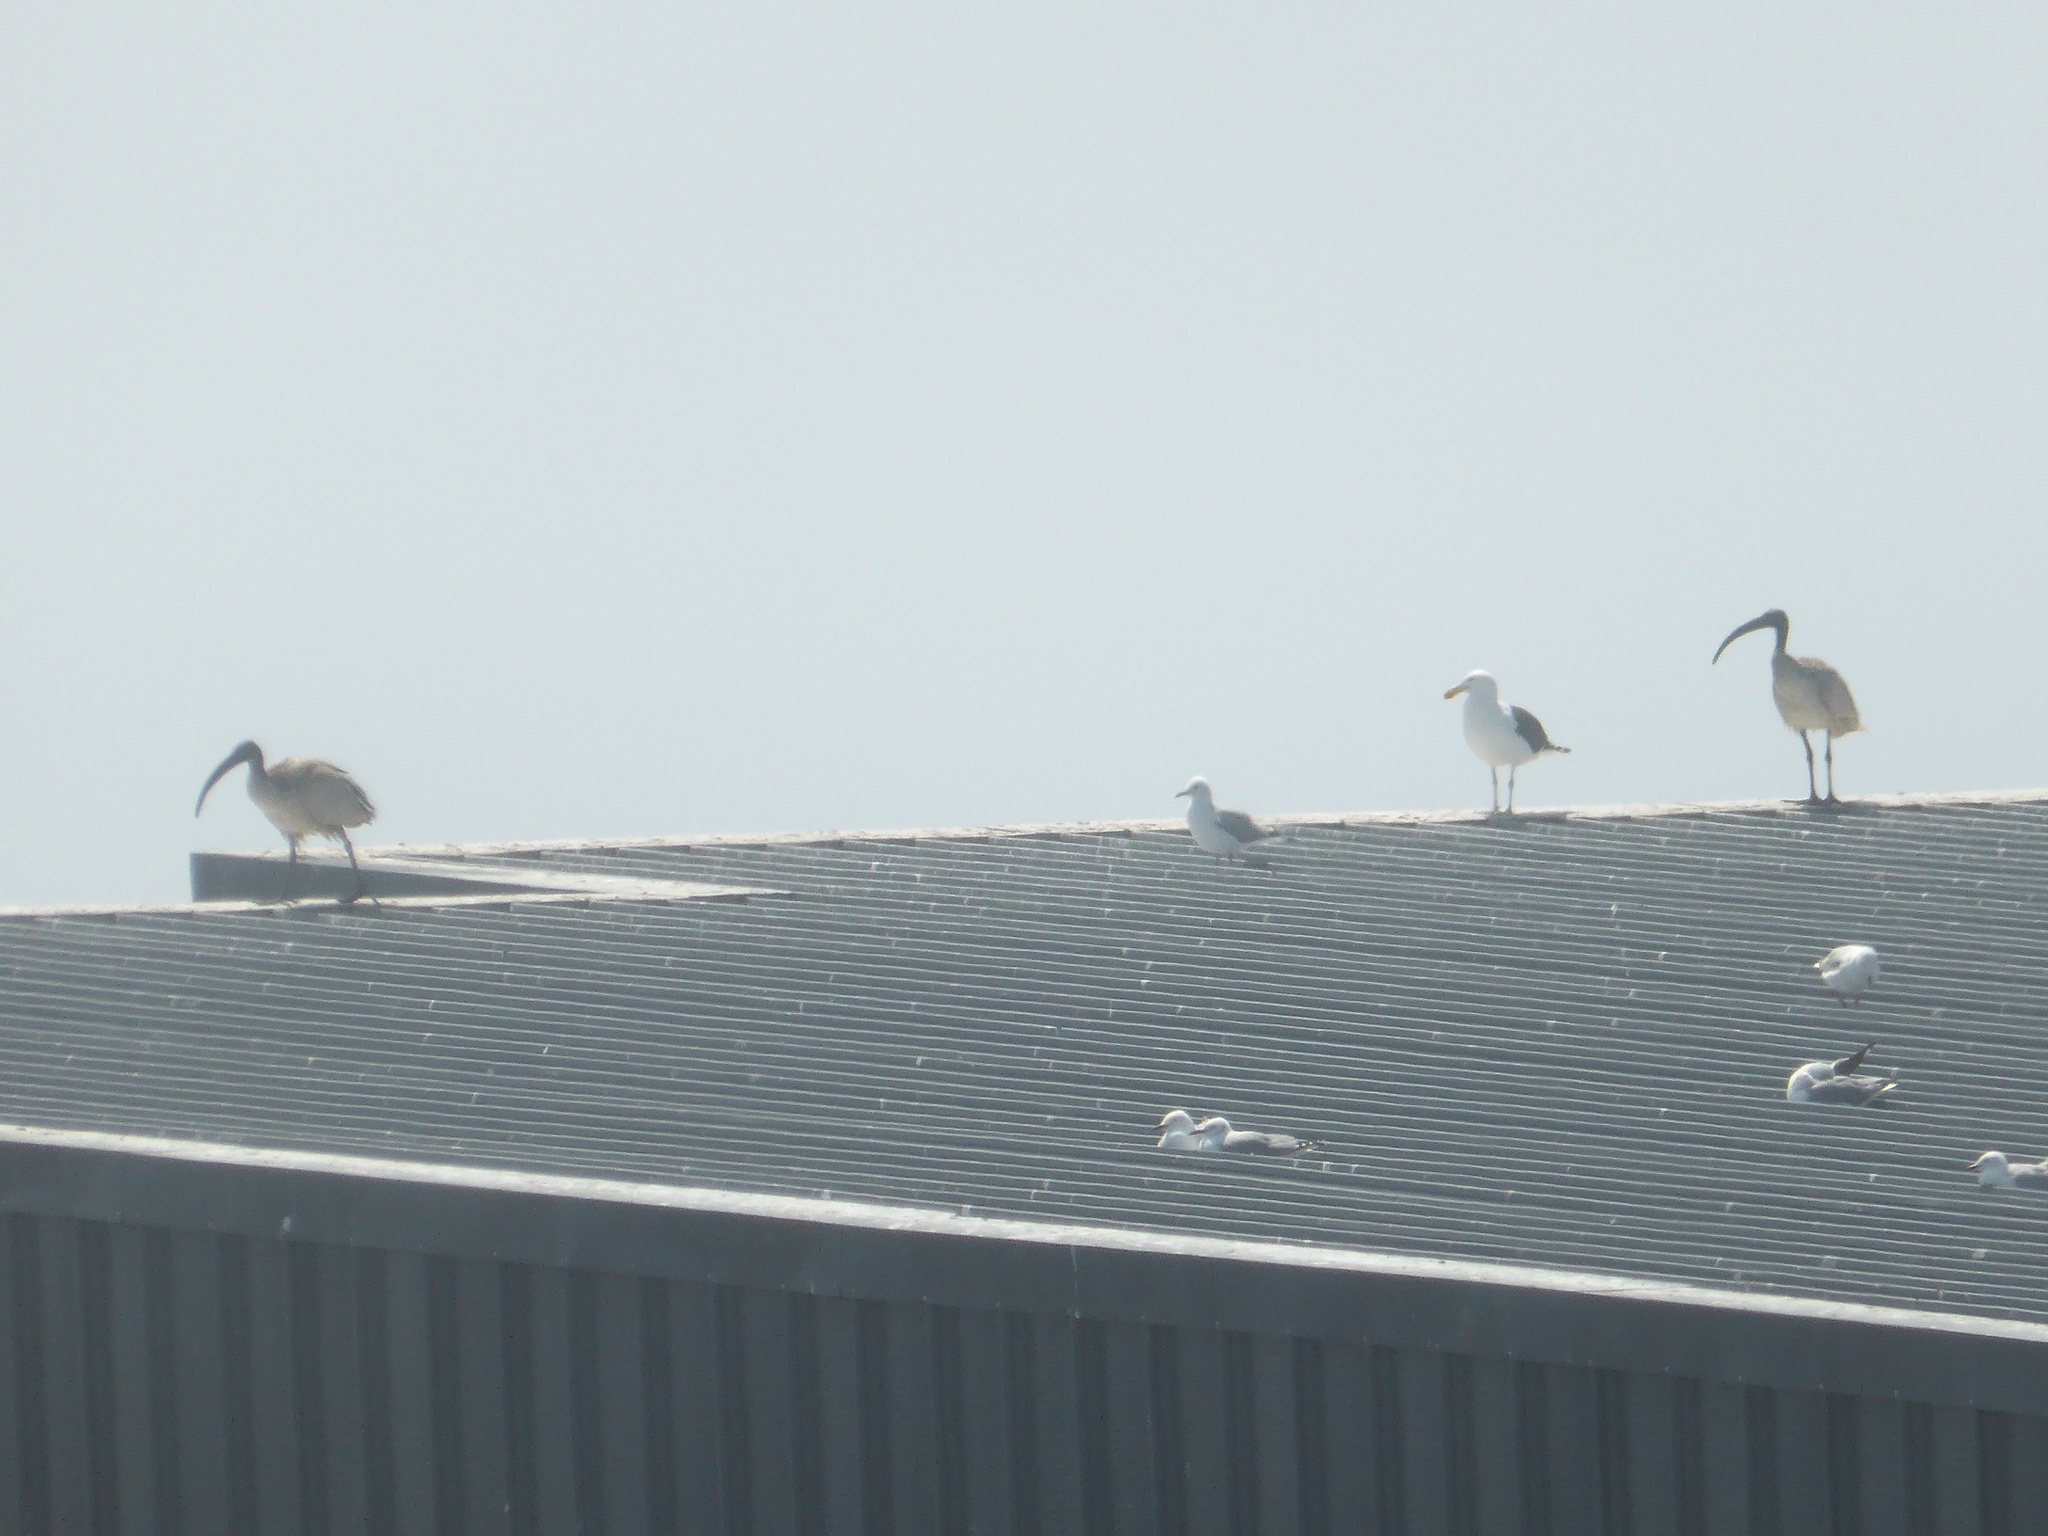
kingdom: Animalia
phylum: Chordata
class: Aves
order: Pelecaniformes
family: Threskiornithidae
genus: Threskiornis
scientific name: Threskiornis aethiopicus
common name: Sacred ibis
